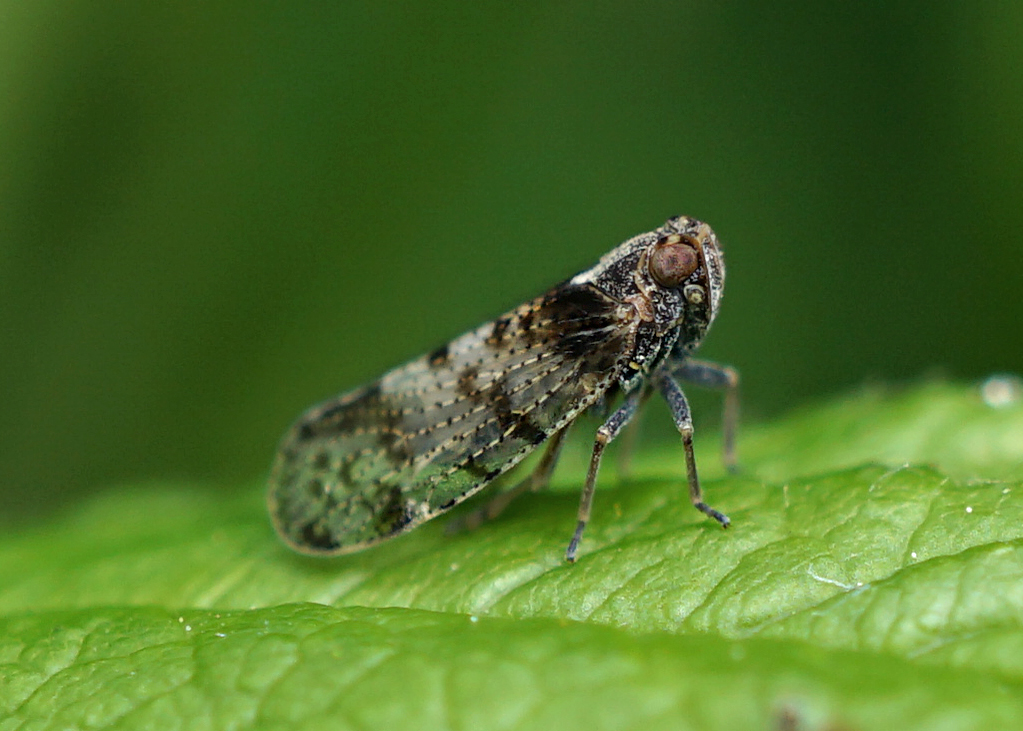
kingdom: Animalia
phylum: Arthropoda
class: Insecta
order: Hemiptera
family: Cixiidae
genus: Tachycixius
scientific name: Tachycixius pilosus
